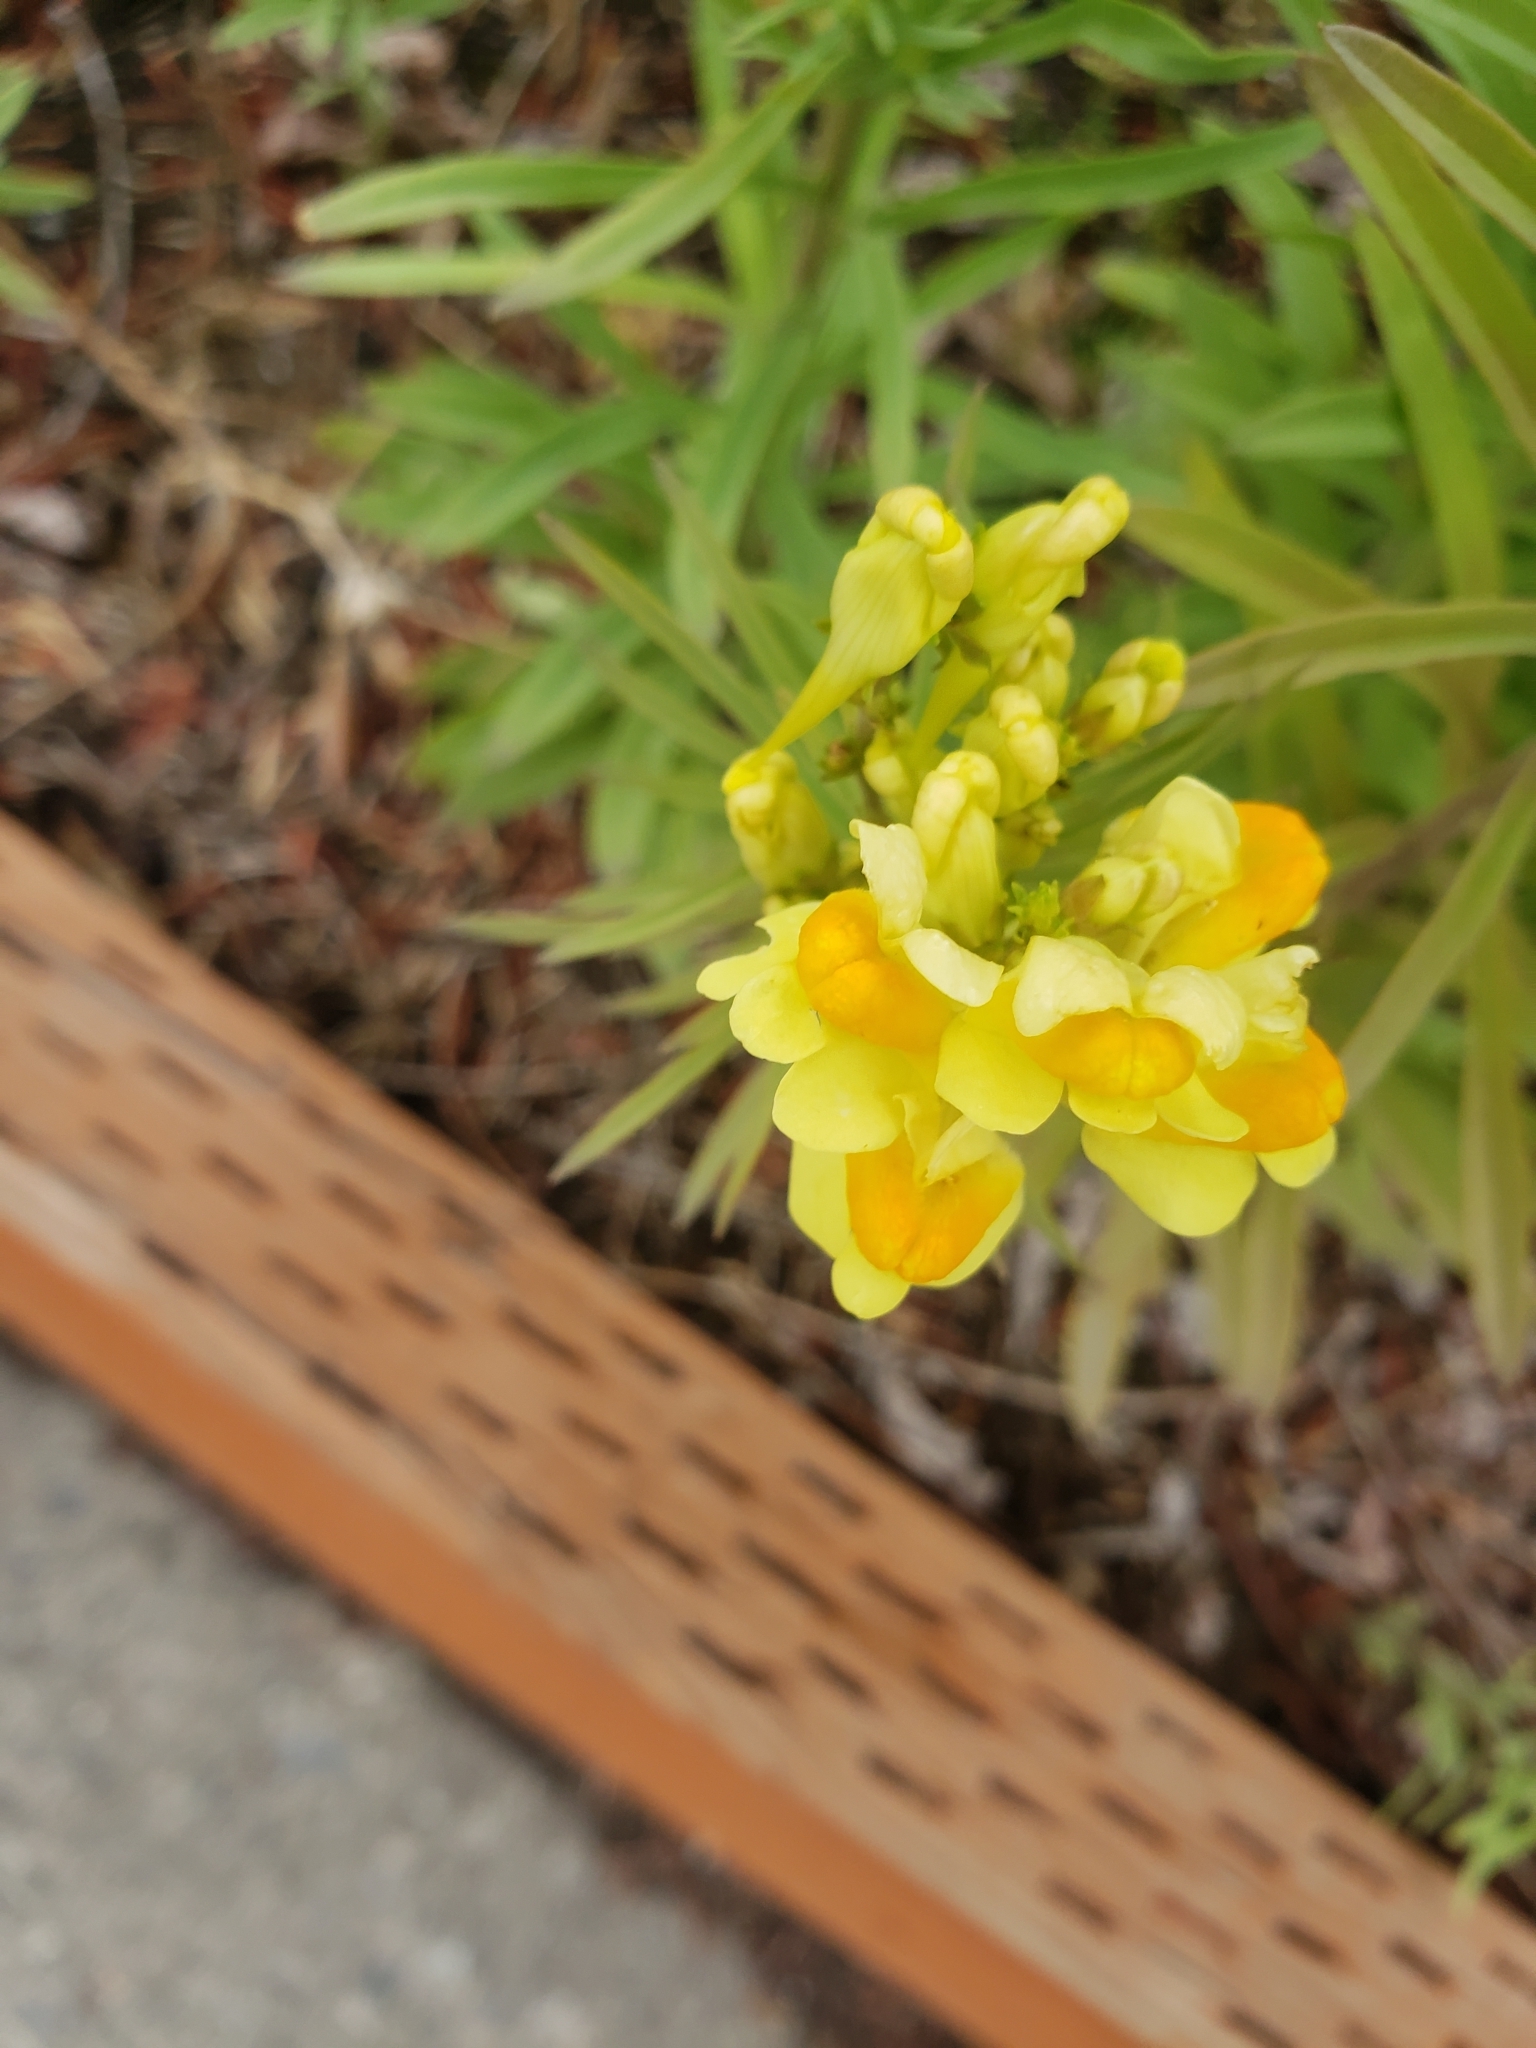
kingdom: Plantae
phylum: Tracheophyta
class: Magnoliopsida
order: Lamiales
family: Plantaginaceae
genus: Linaria
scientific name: Linaria vulgaris
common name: Butter and eggs
